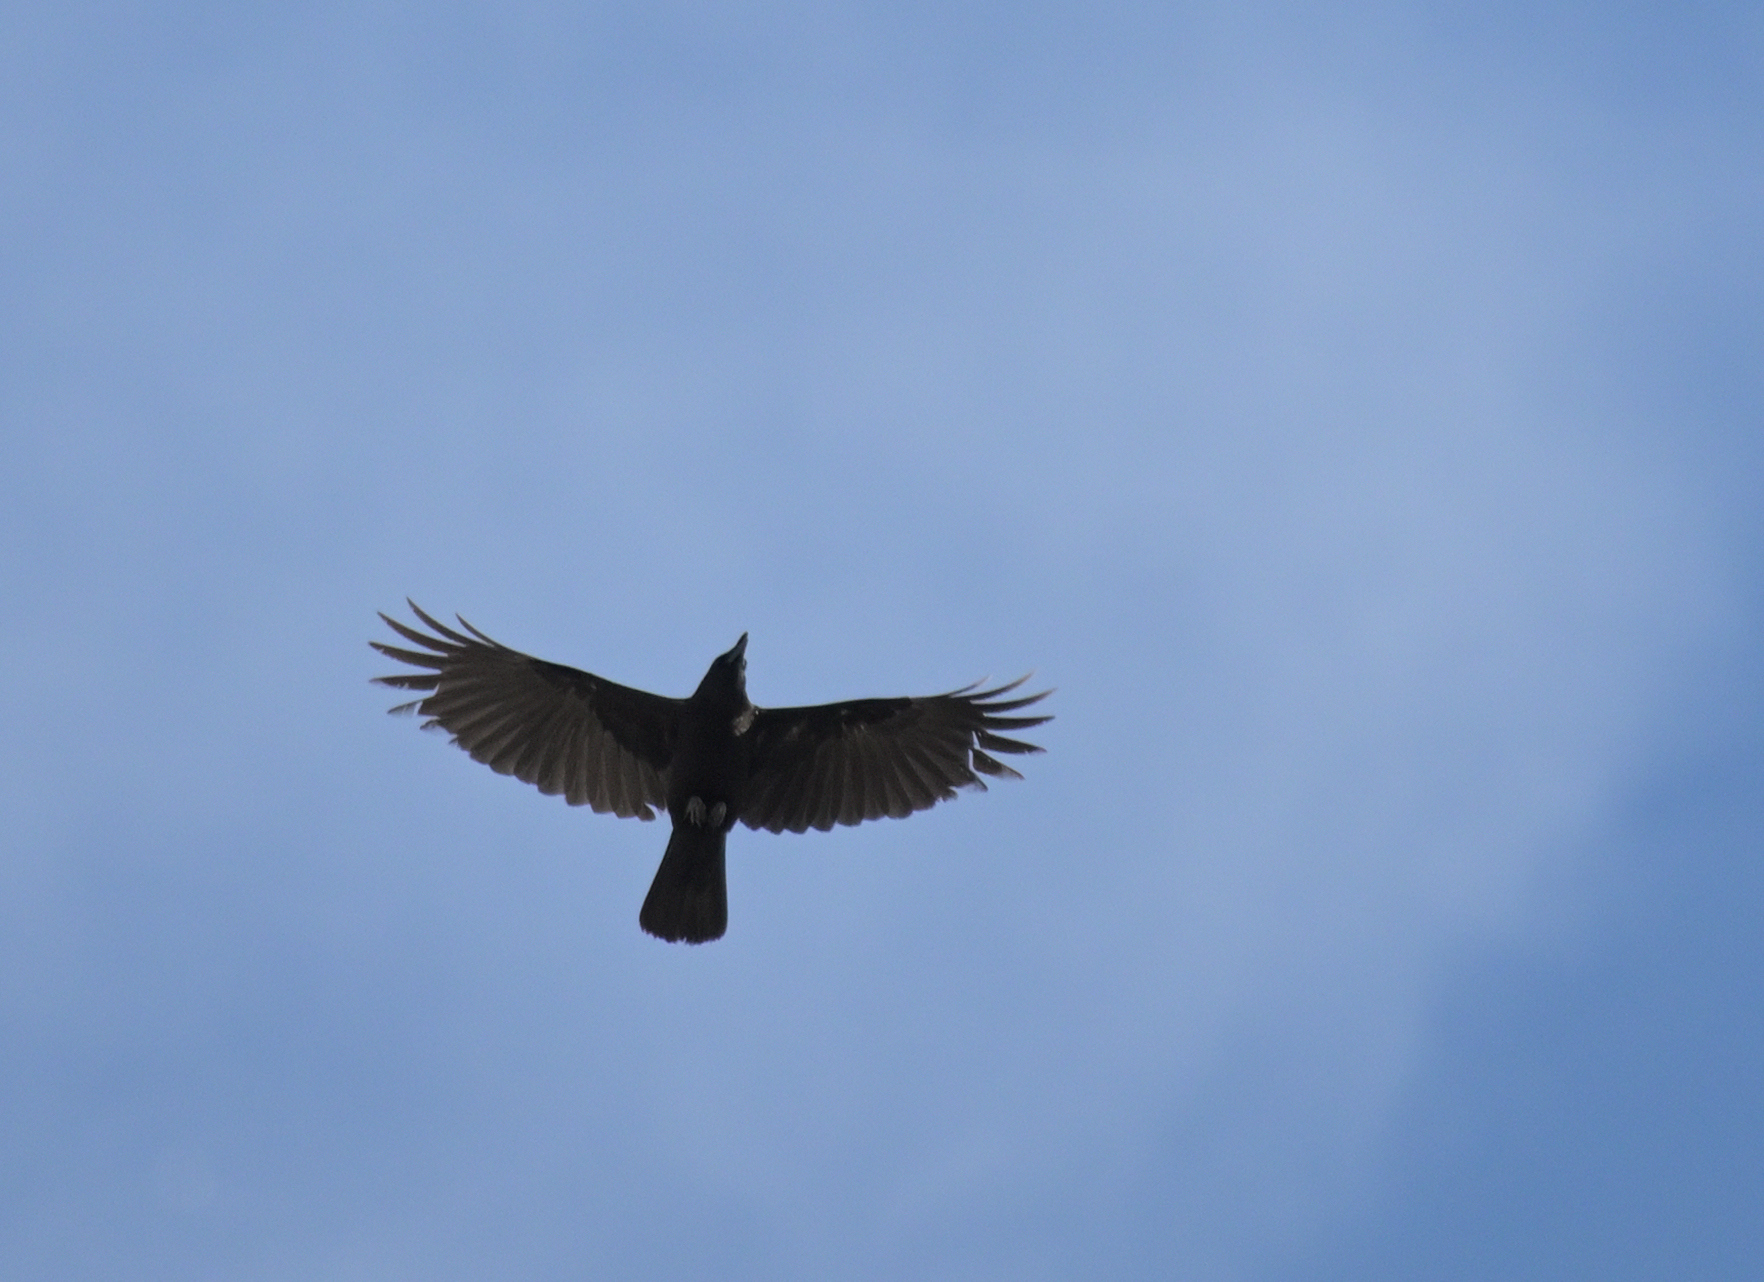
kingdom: Animalia
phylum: Chordata
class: Aves
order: Passeriformes
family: Corvidae
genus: Corvus
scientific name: Corvus corone
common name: Carrion crow
